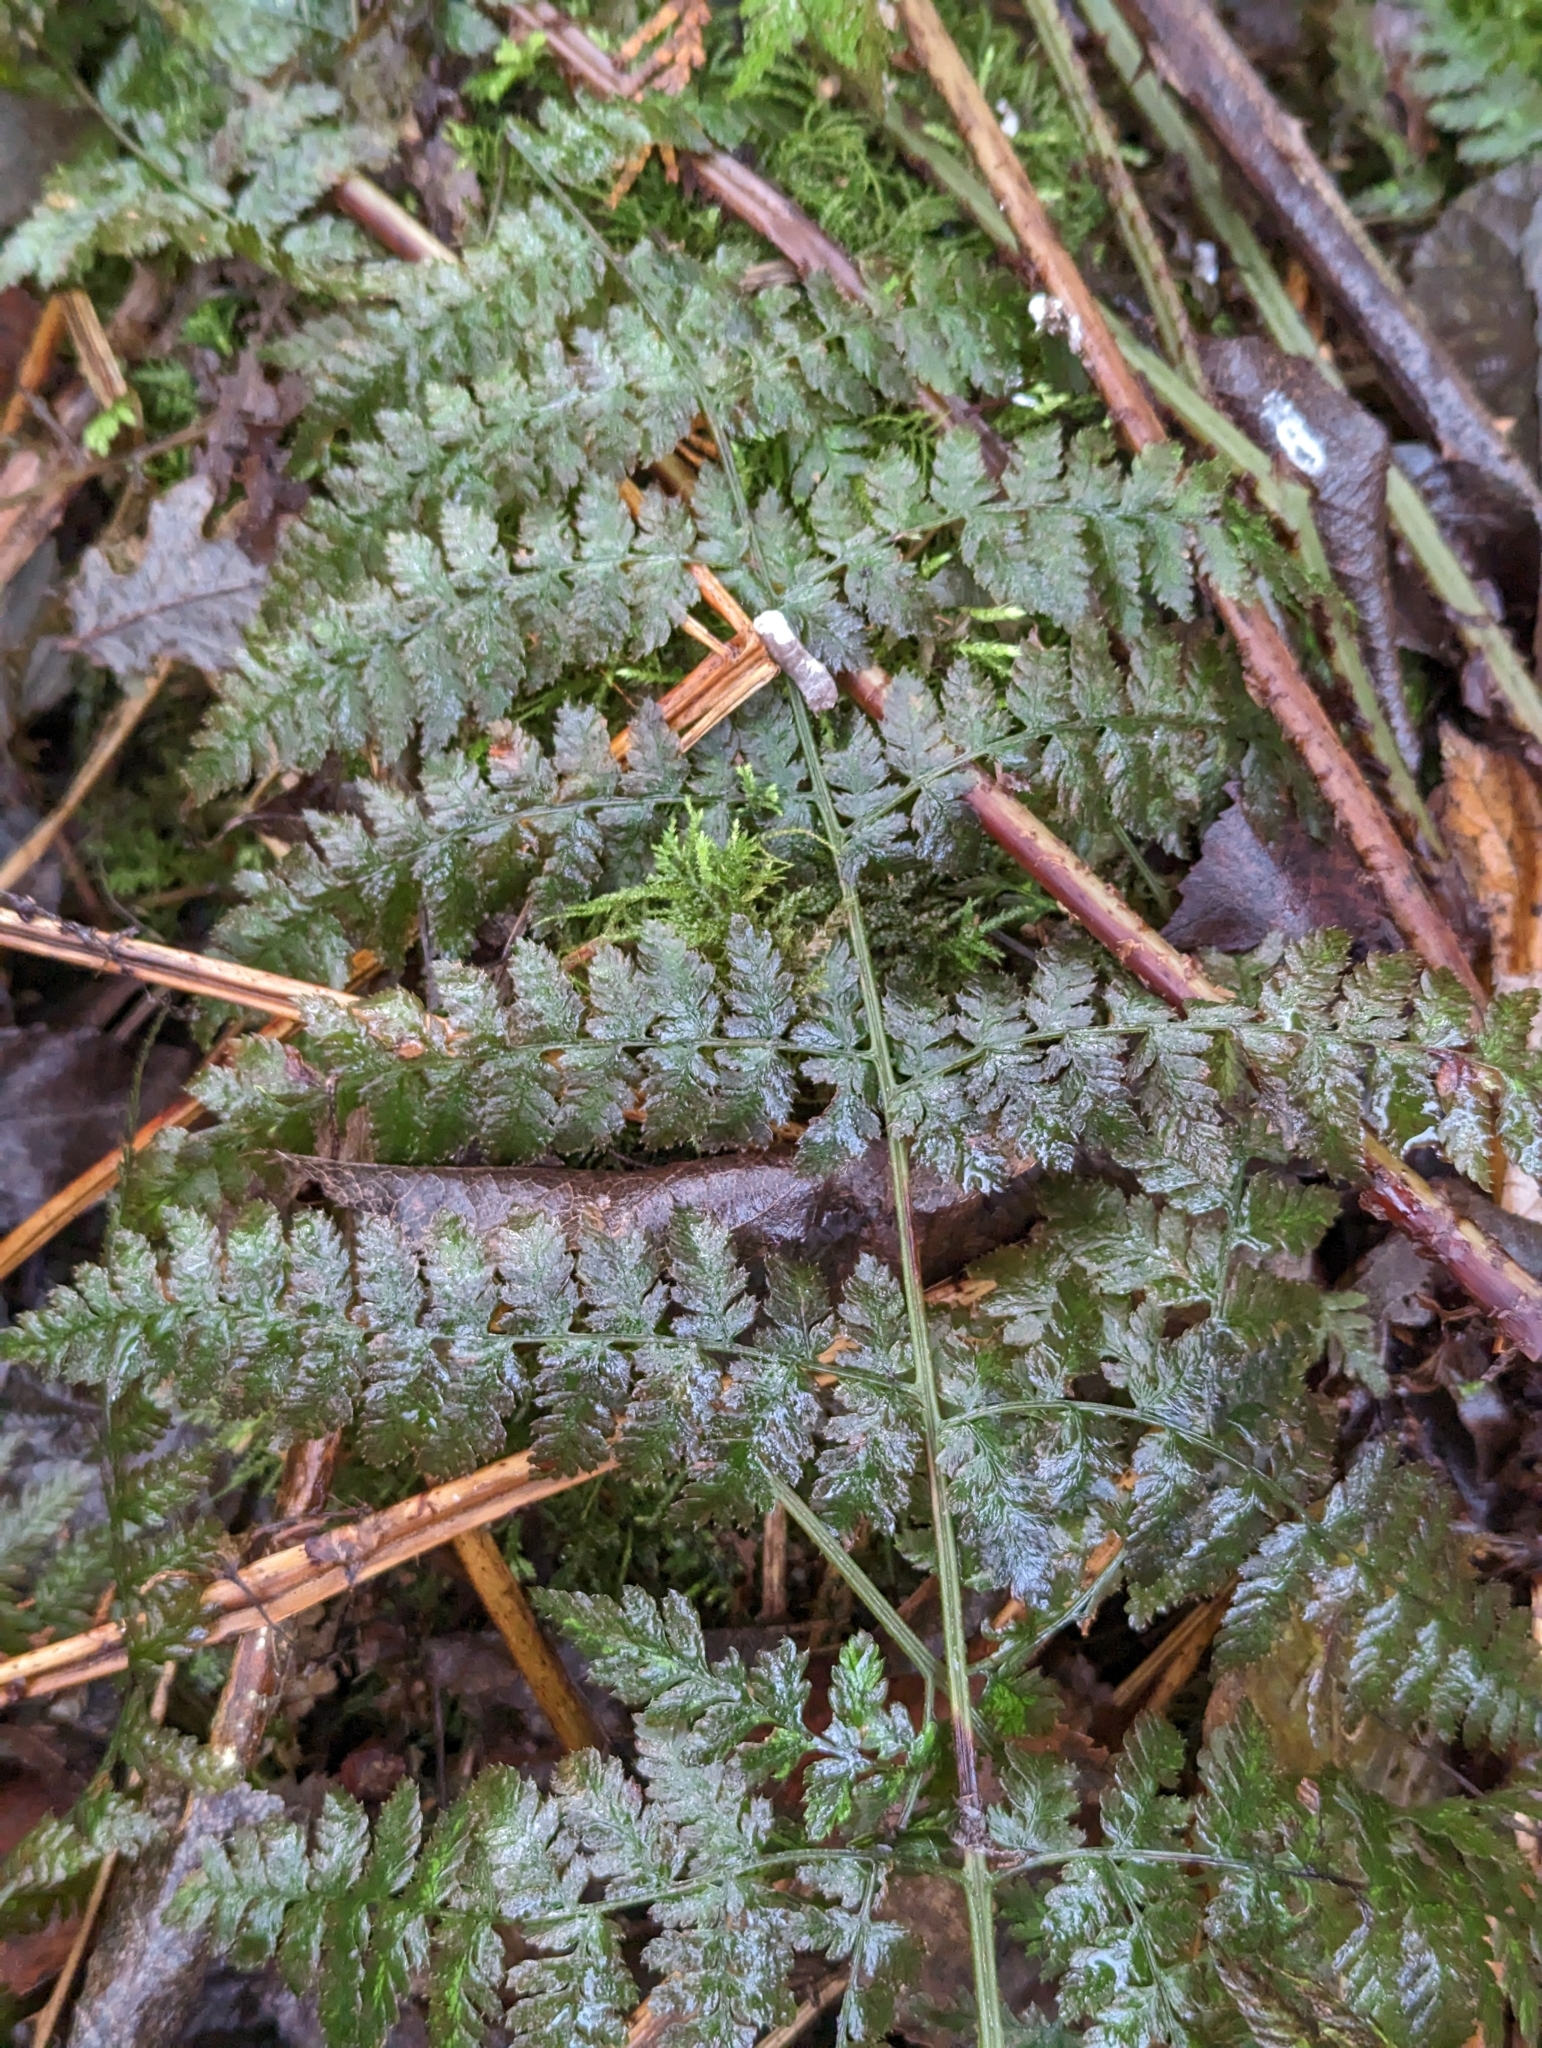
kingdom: Plantae
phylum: Tracheophyta
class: Polypodiopsida
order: Polypodiales
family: Dryopteridaceae
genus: Dryopteris
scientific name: Dryopteris expansa
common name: Northern buckler fern
